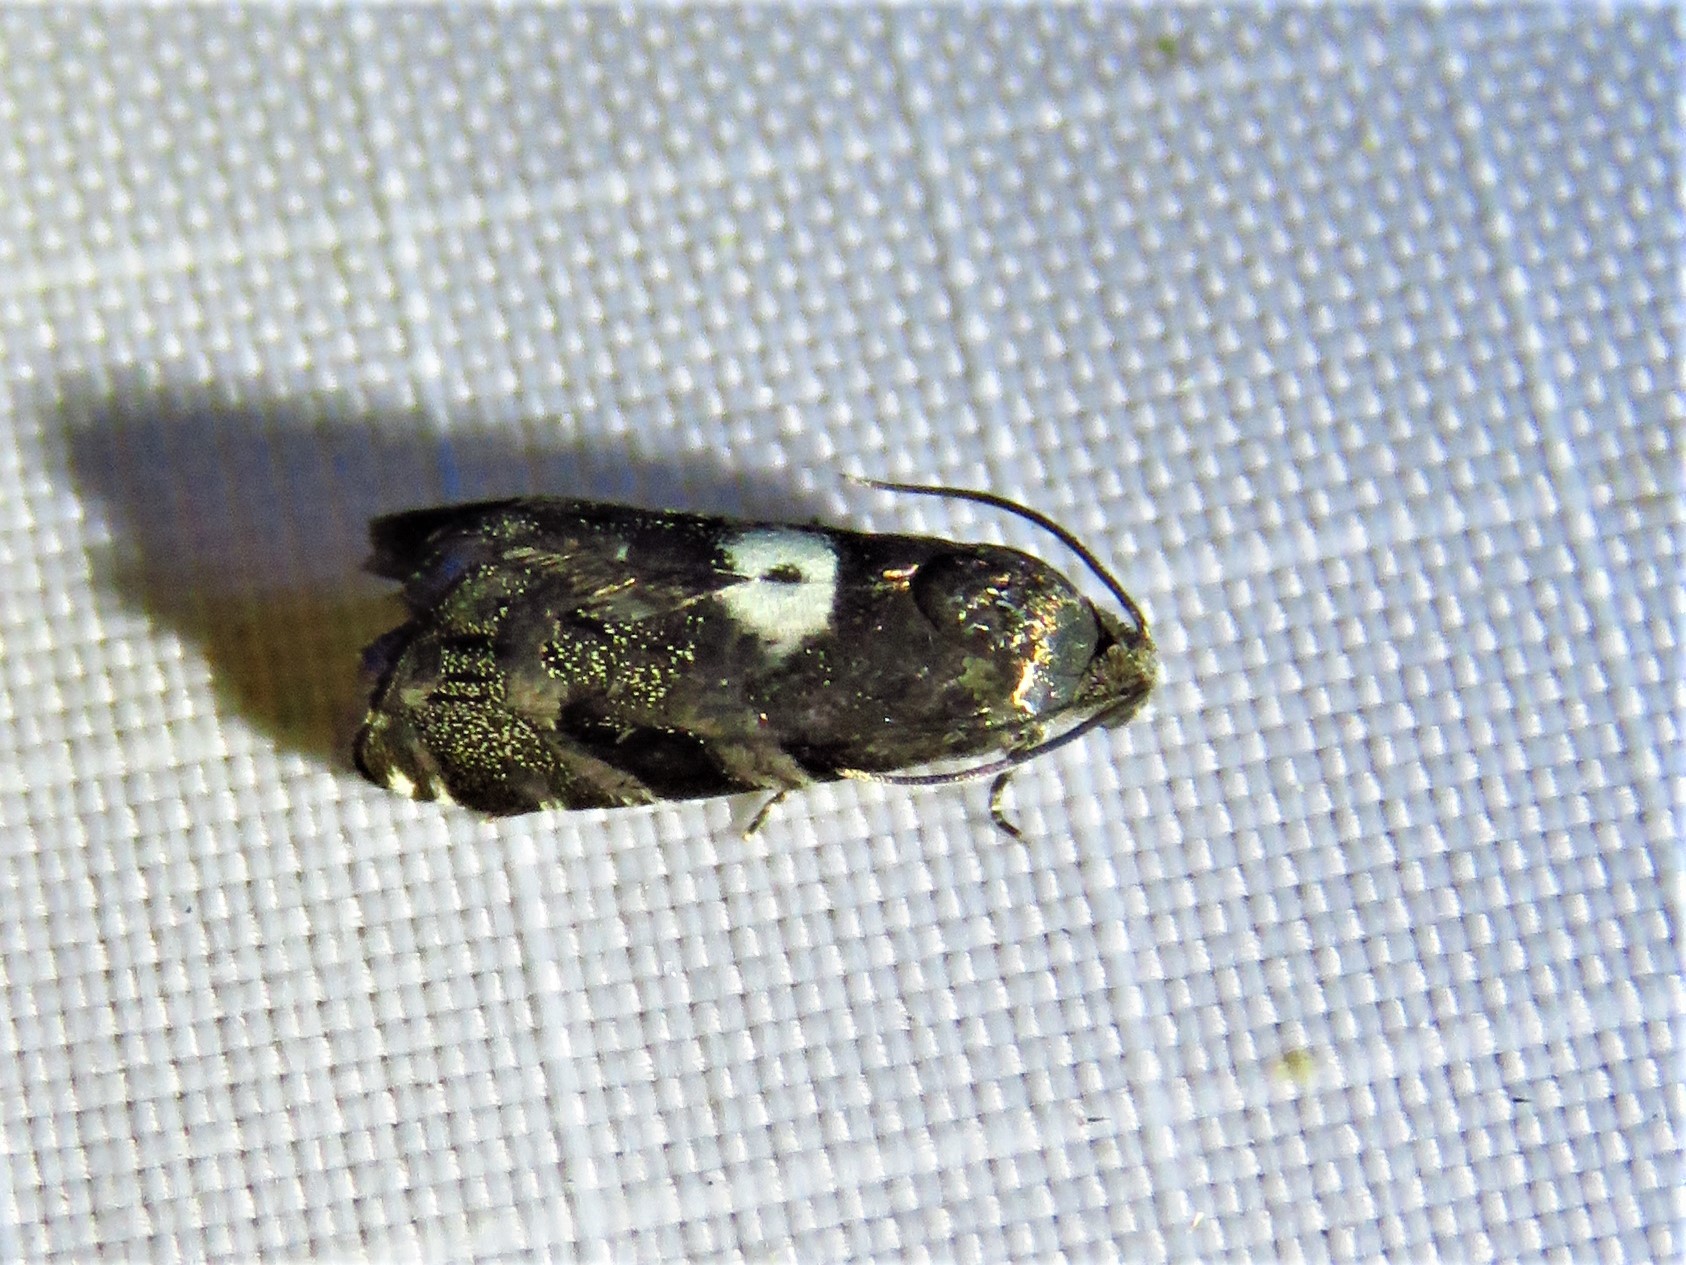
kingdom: Animalia
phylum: Arthropoda
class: Insecta
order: Lepidoptera
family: Tortricidae
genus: Cydia
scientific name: Cydia albimaculana
